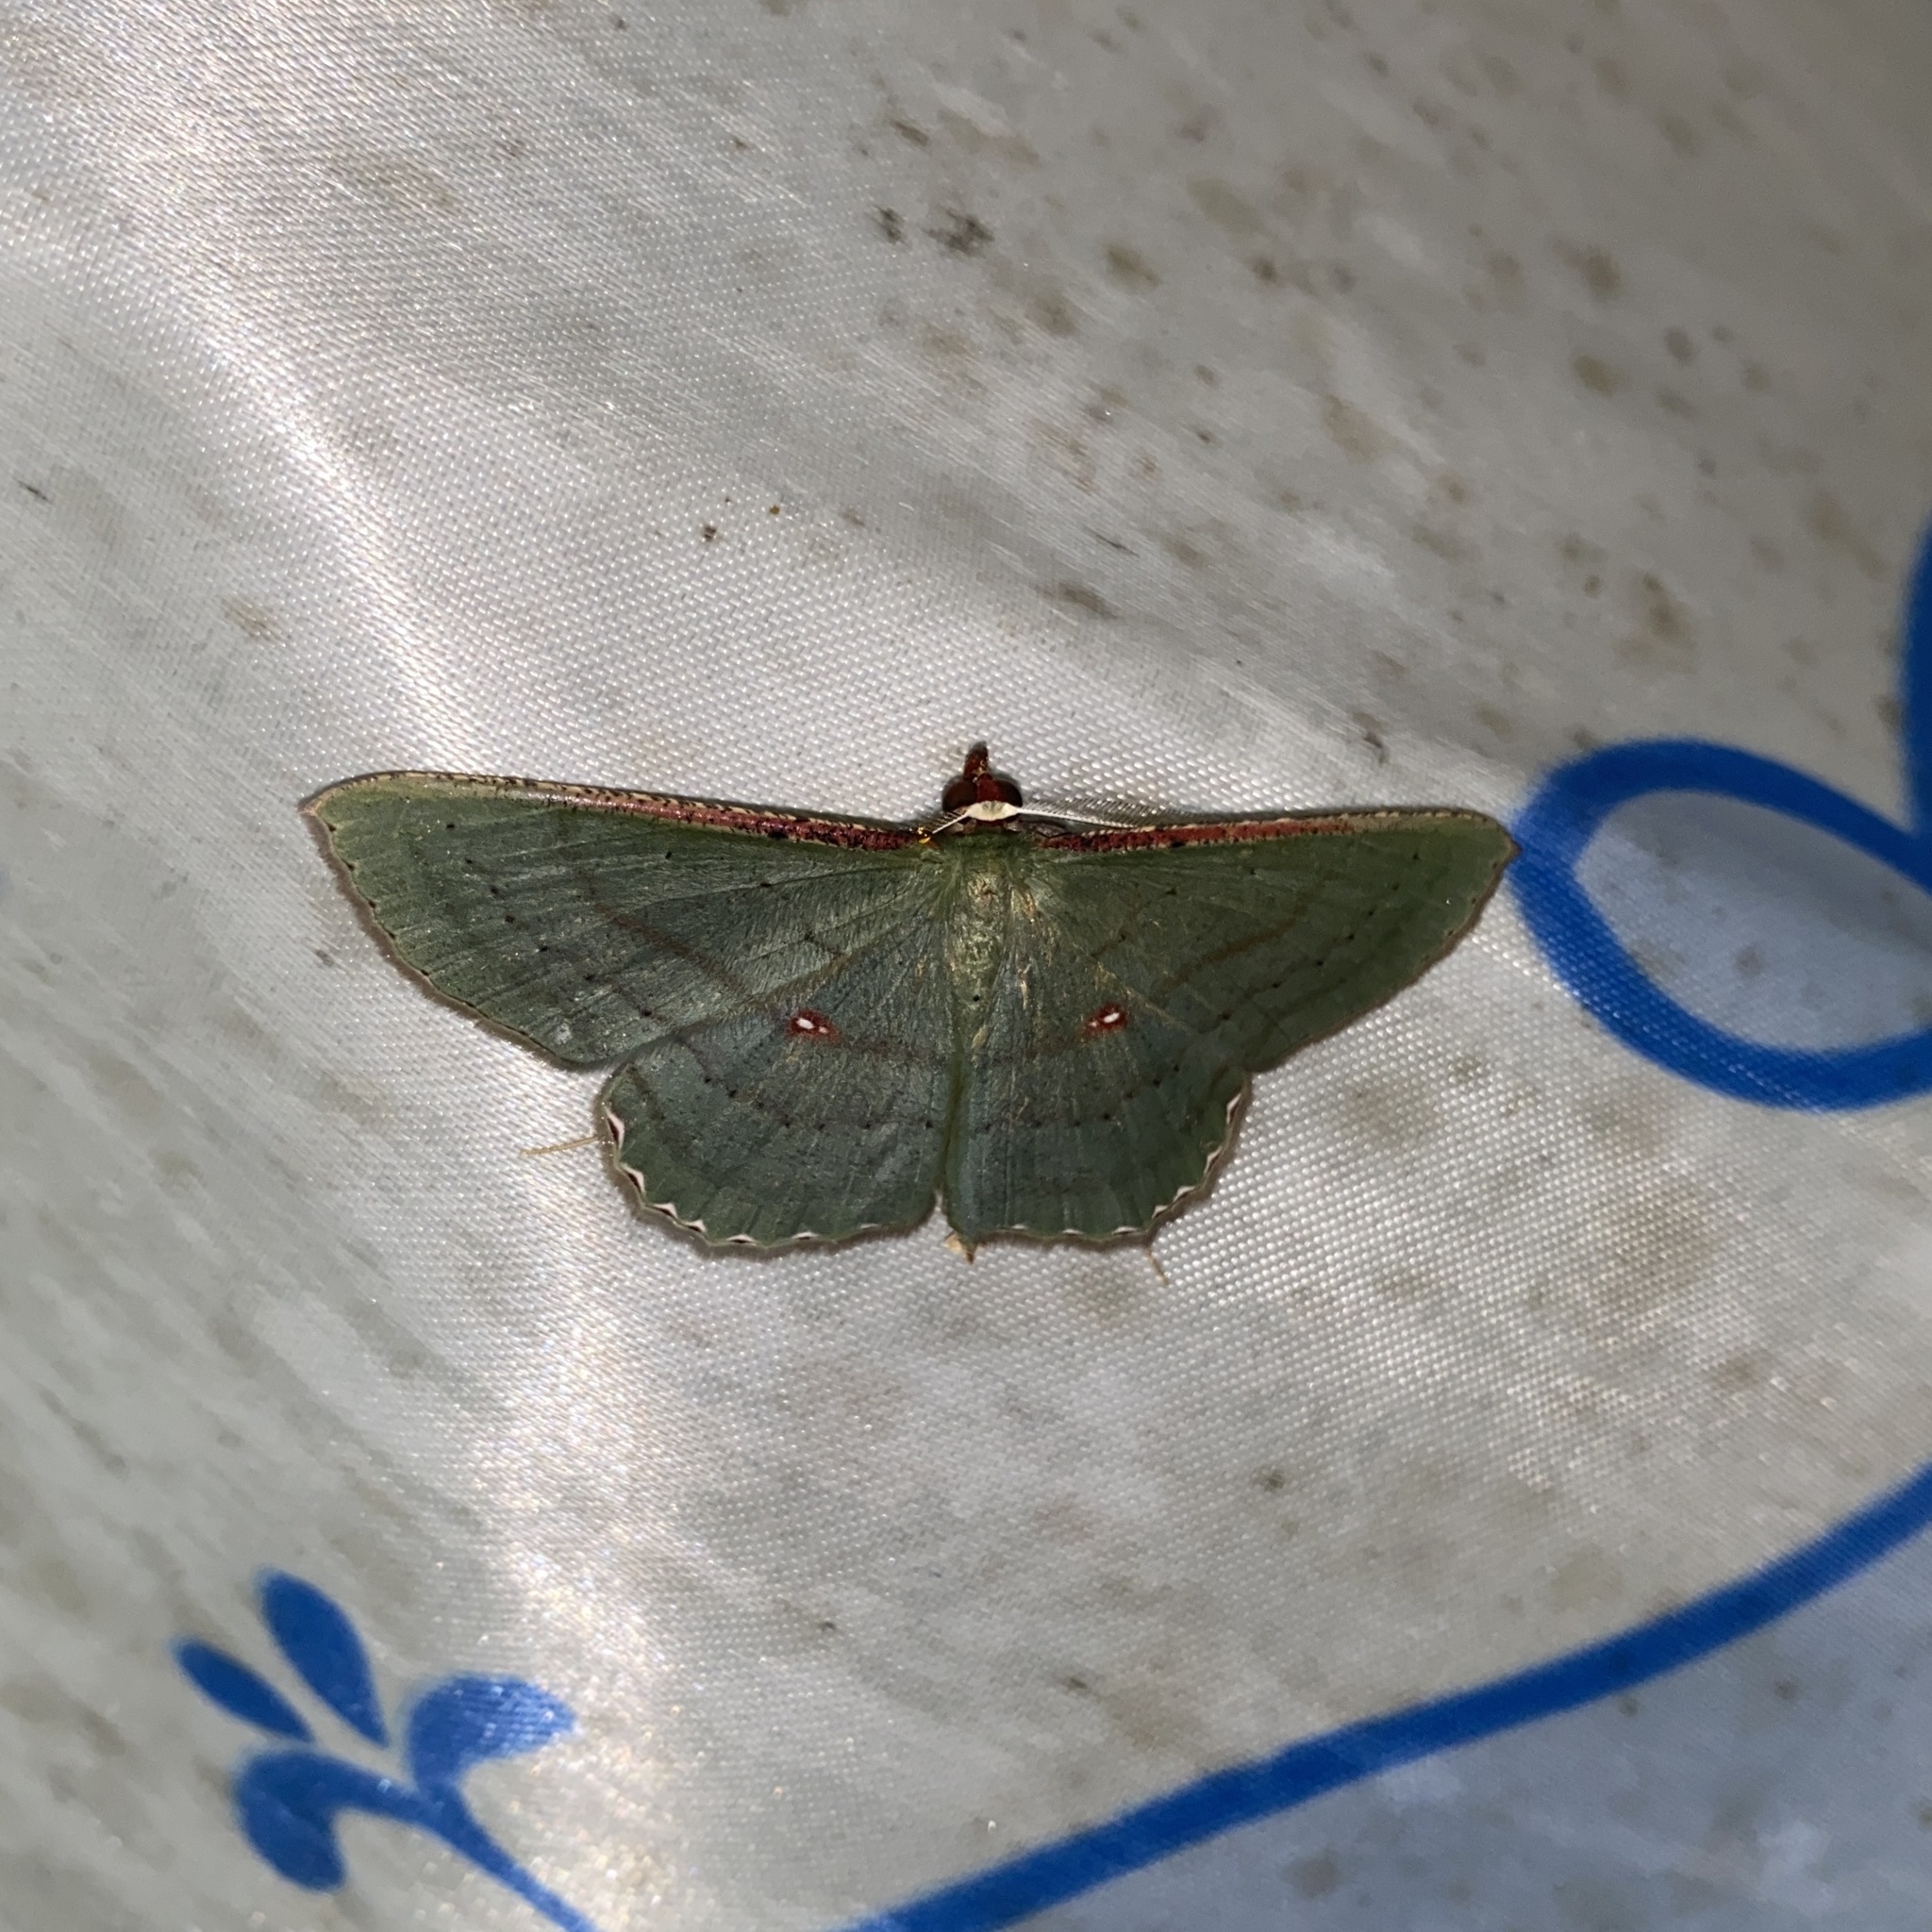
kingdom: Animalia
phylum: Arthropoda
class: Insecta
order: Lepidoptera
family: Geometridae
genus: Ametris
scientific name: Ametris nitocris
